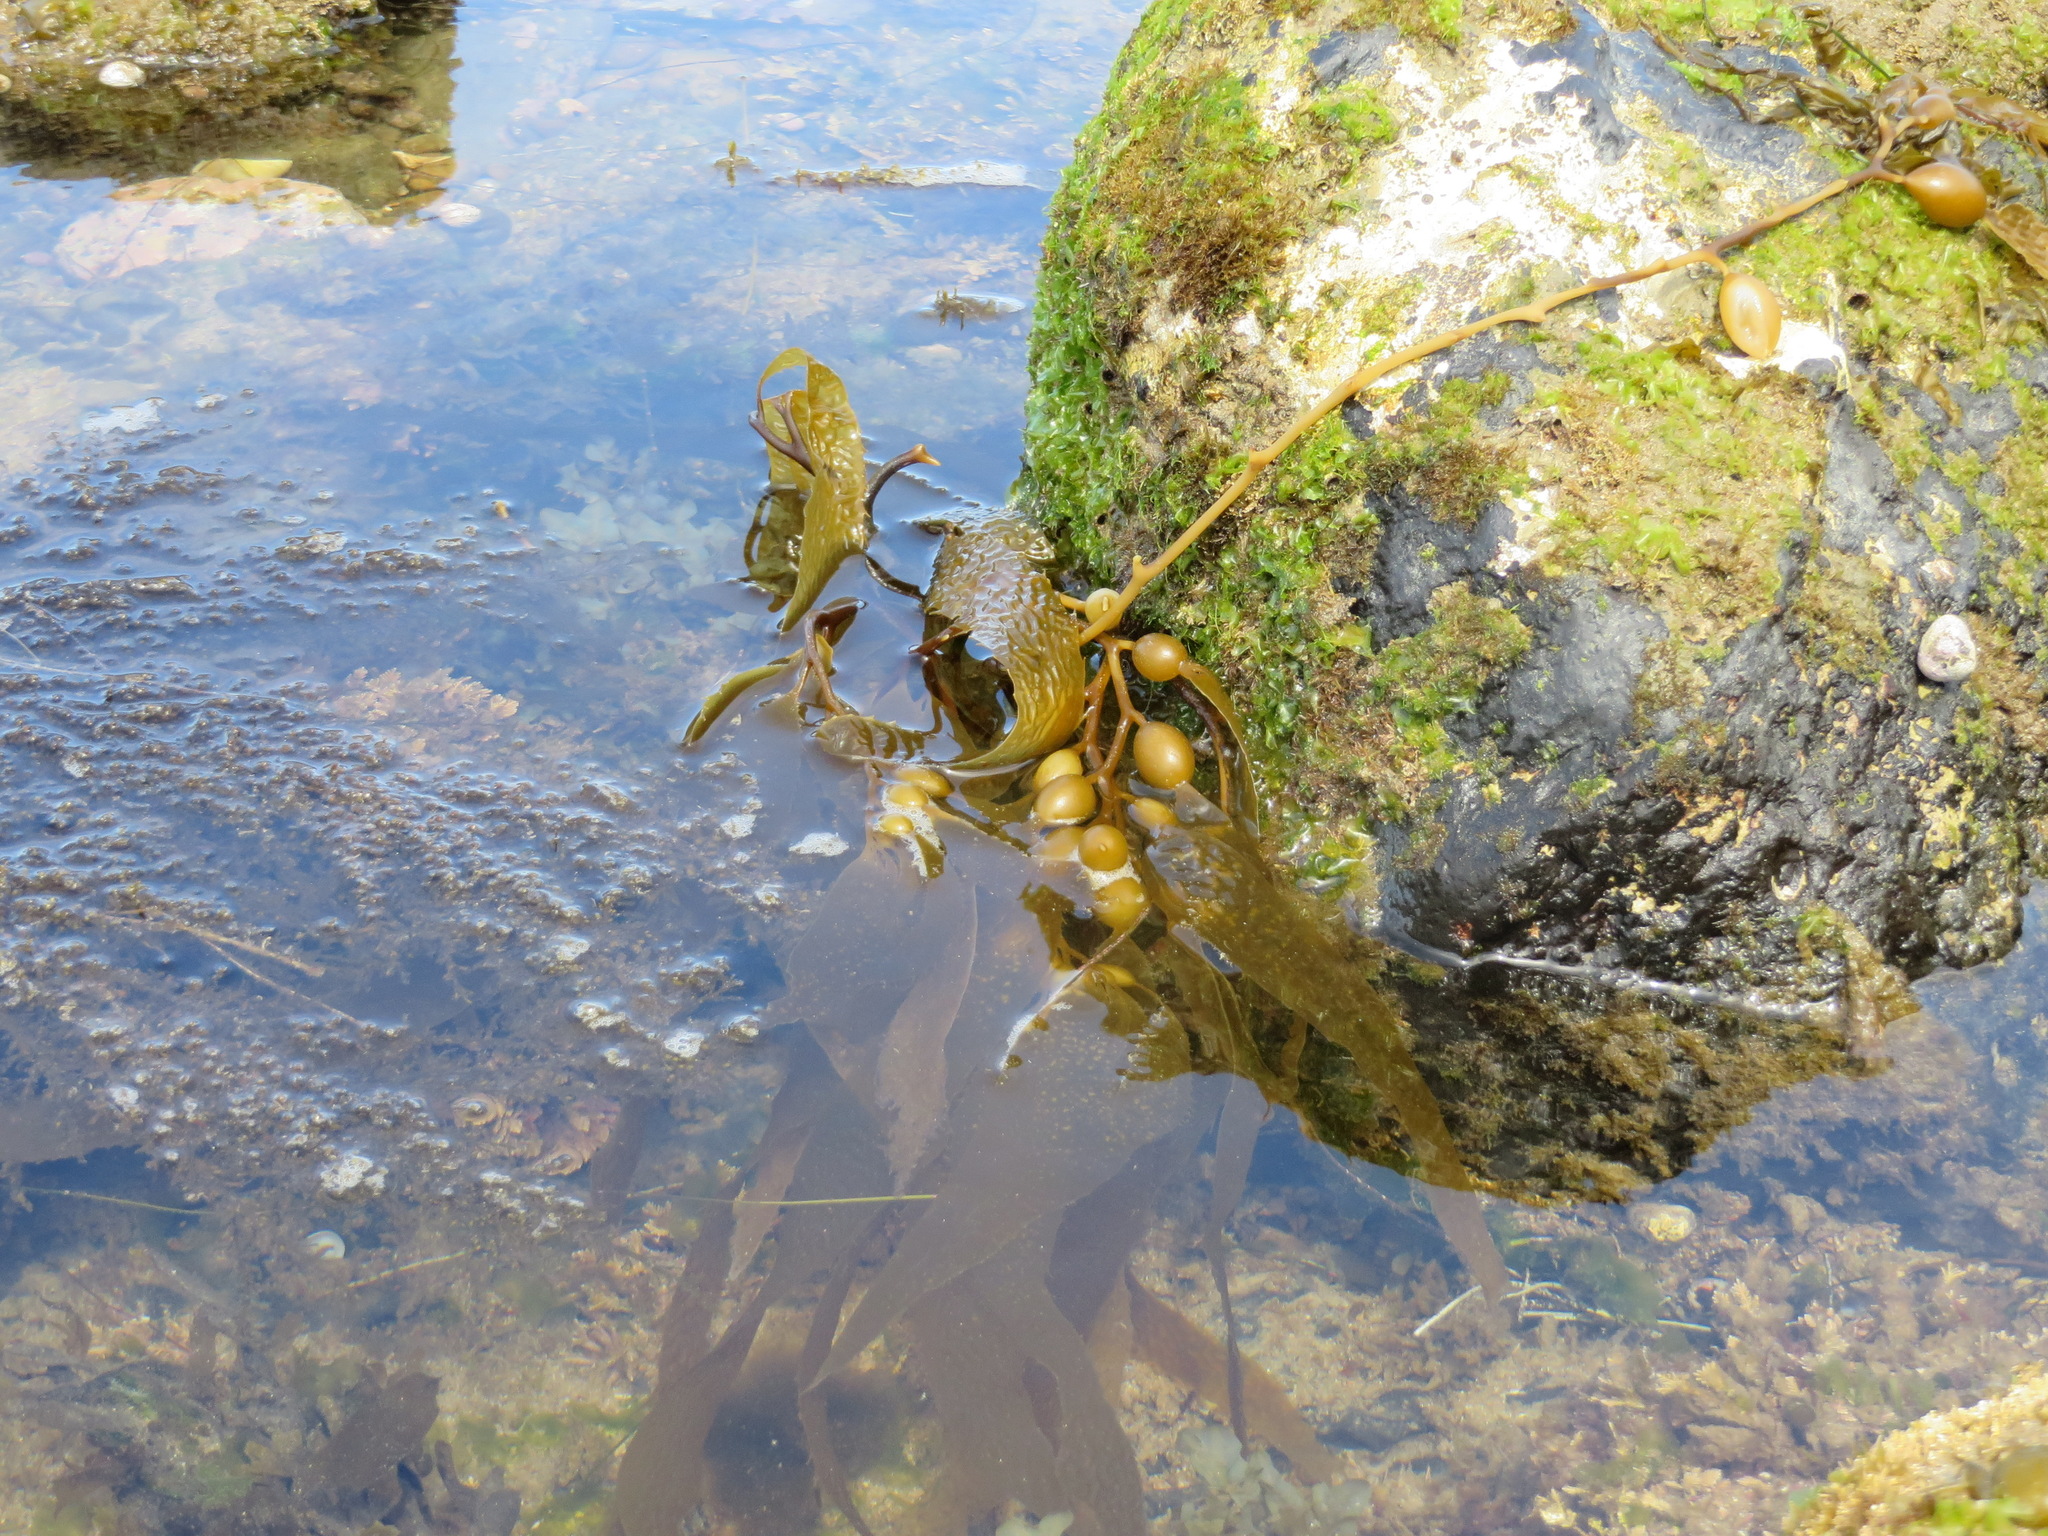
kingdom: Chromista
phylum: Ochrophyta
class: Phaeophyceae
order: Laminariales
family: Laminariaceae
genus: Macrocystis
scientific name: Macrocystis pyrifera
